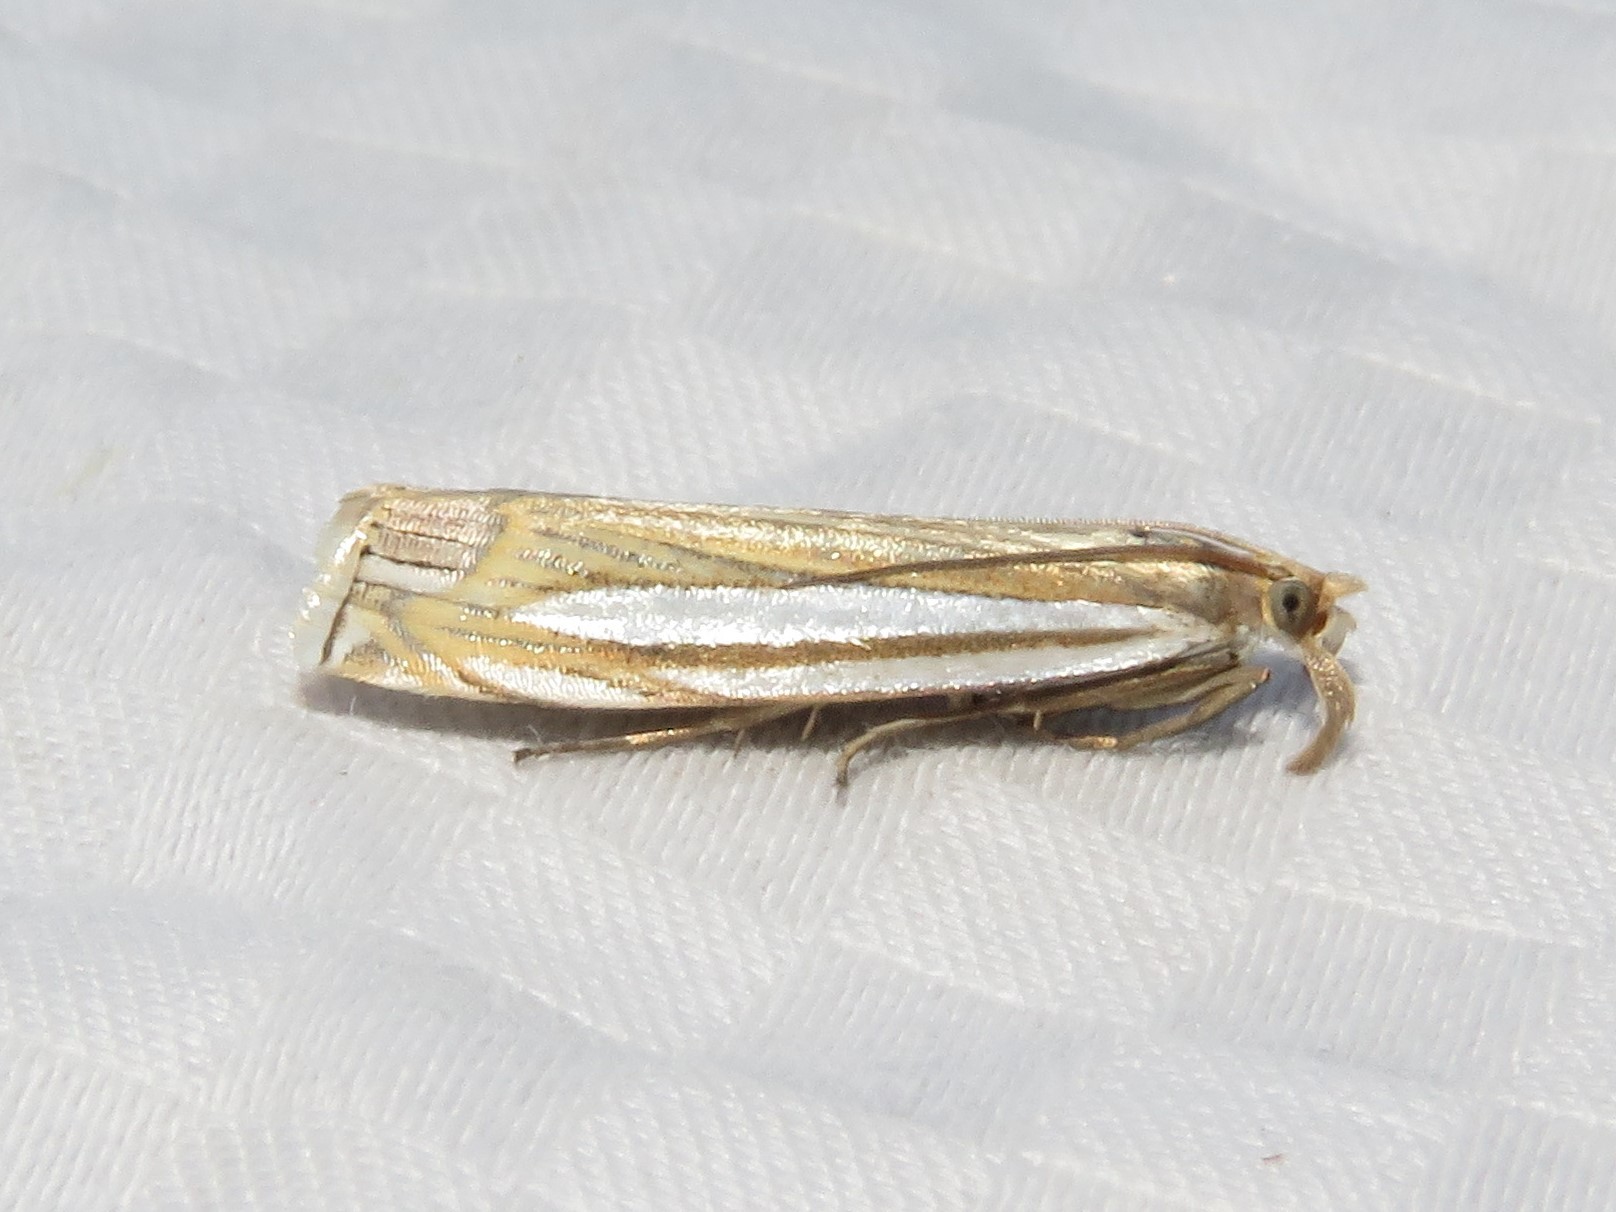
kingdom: Animalia
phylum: Arthropoda
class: Insecta
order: Lepidoptera
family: Crambidae
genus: Crambus
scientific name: Crambus laqueatellus
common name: Eastern grass-veneer
